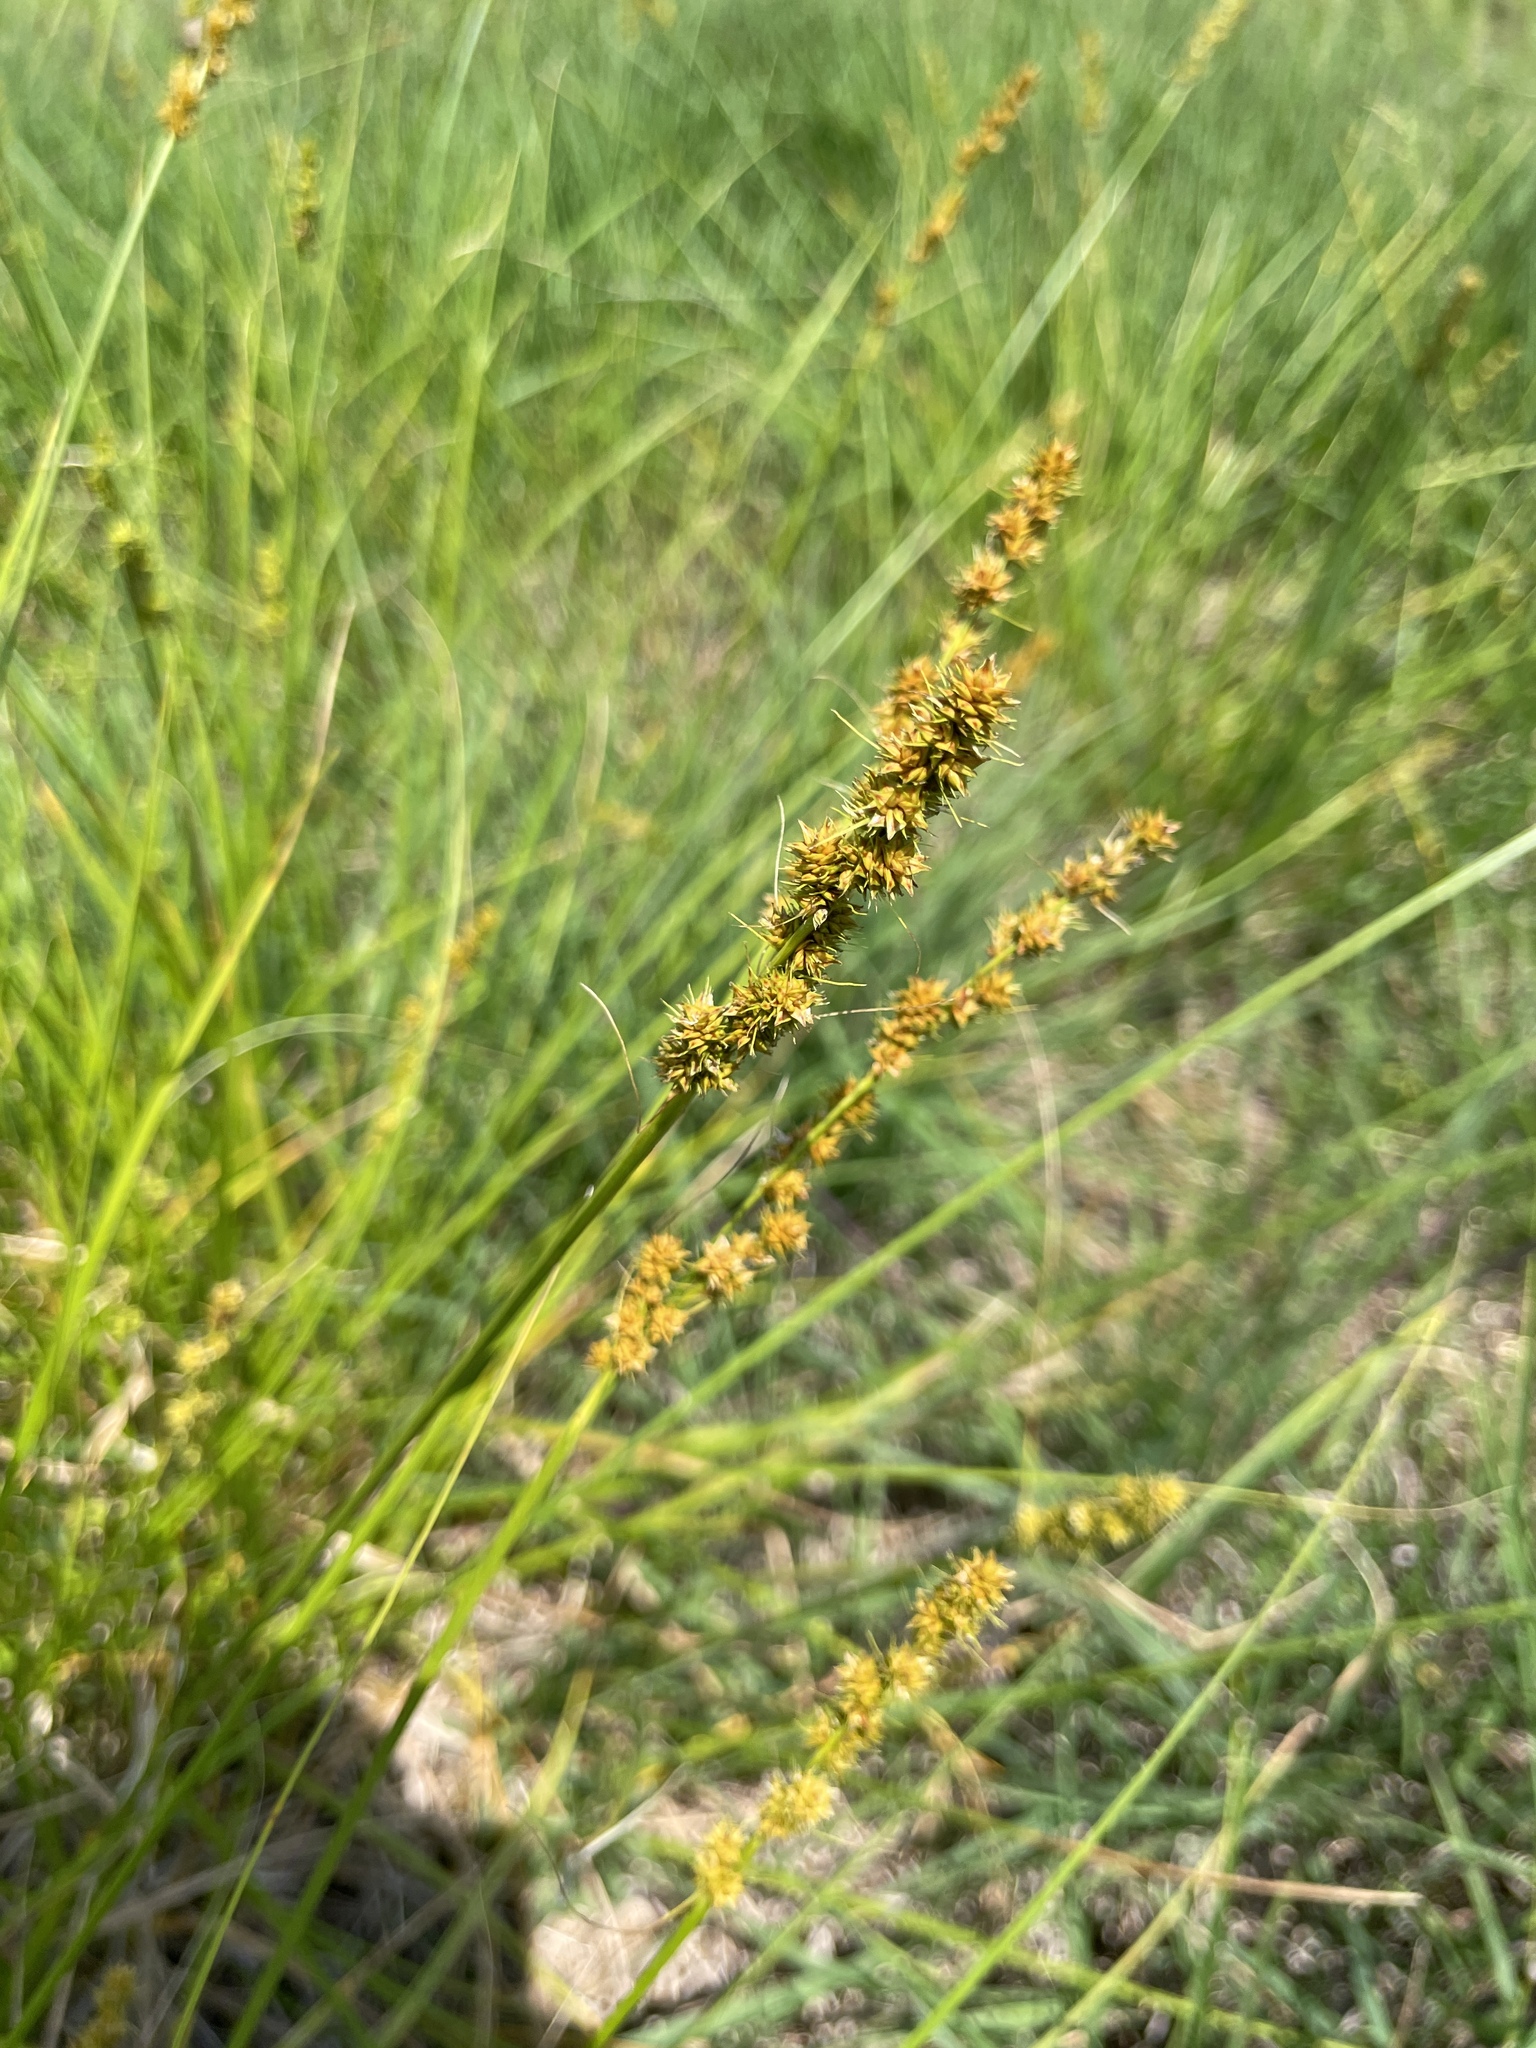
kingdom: Plantae
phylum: Tracheophyta
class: Liliopsida
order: Poales
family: Cyperaceae
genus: Carex
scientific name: Carex annectens
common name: Large fox sedge
